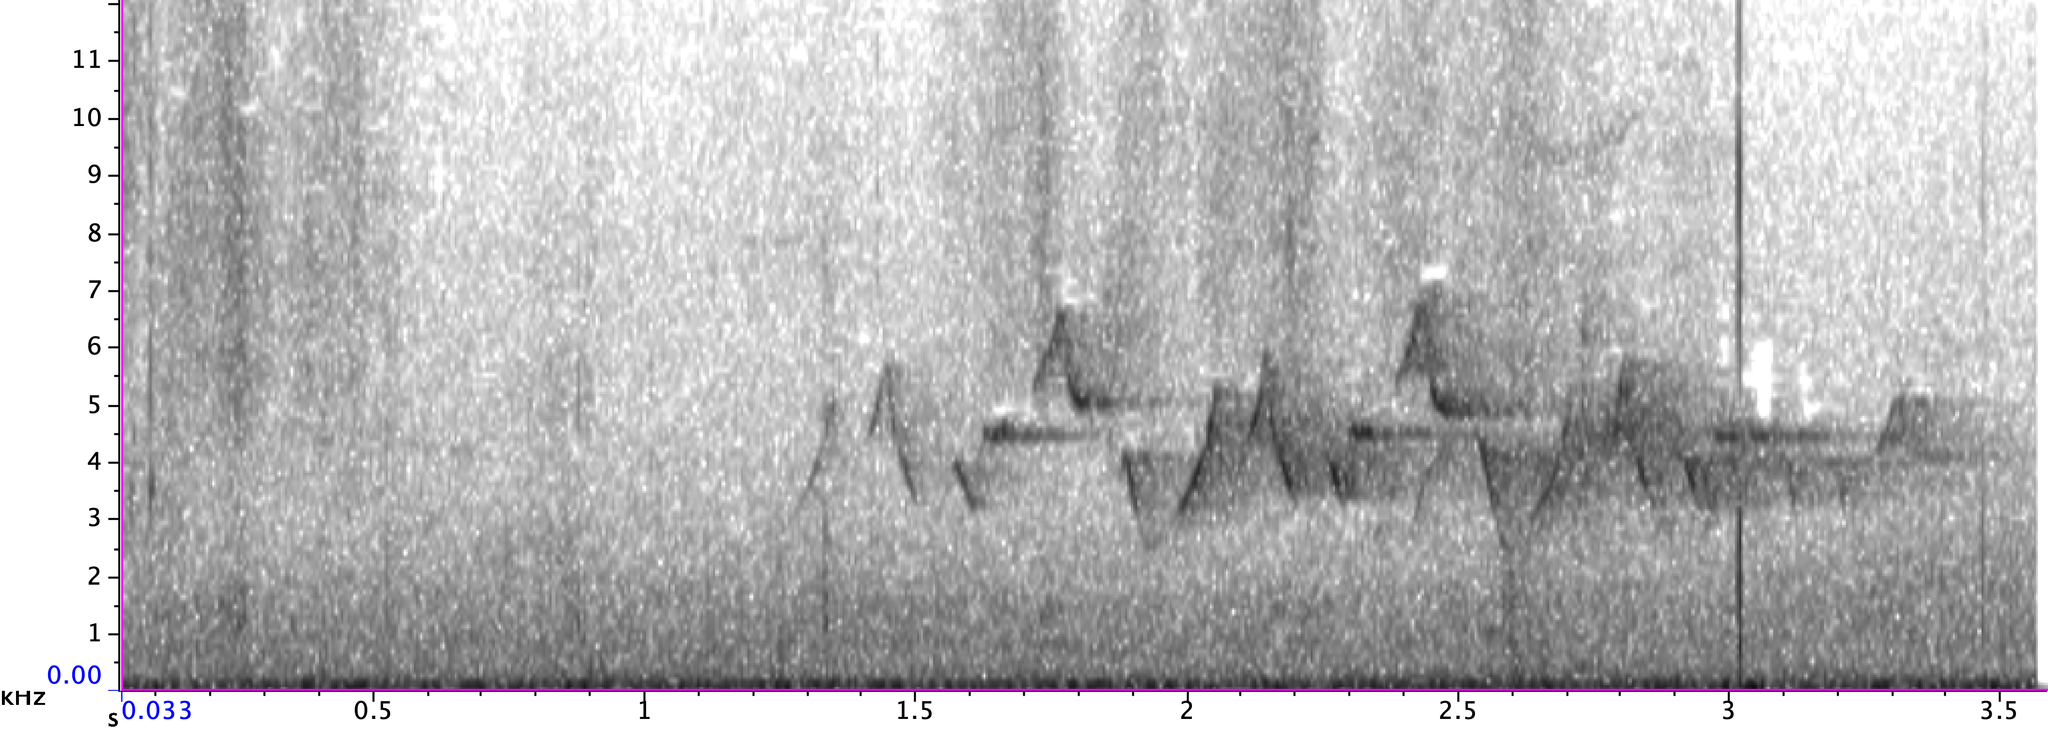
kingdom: Animalia
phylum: Chordata
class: Aves
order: Passeriformes
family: Parulidae
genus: Geothlypis
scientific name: Geothlypis trichas
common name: Common yellowthroat
